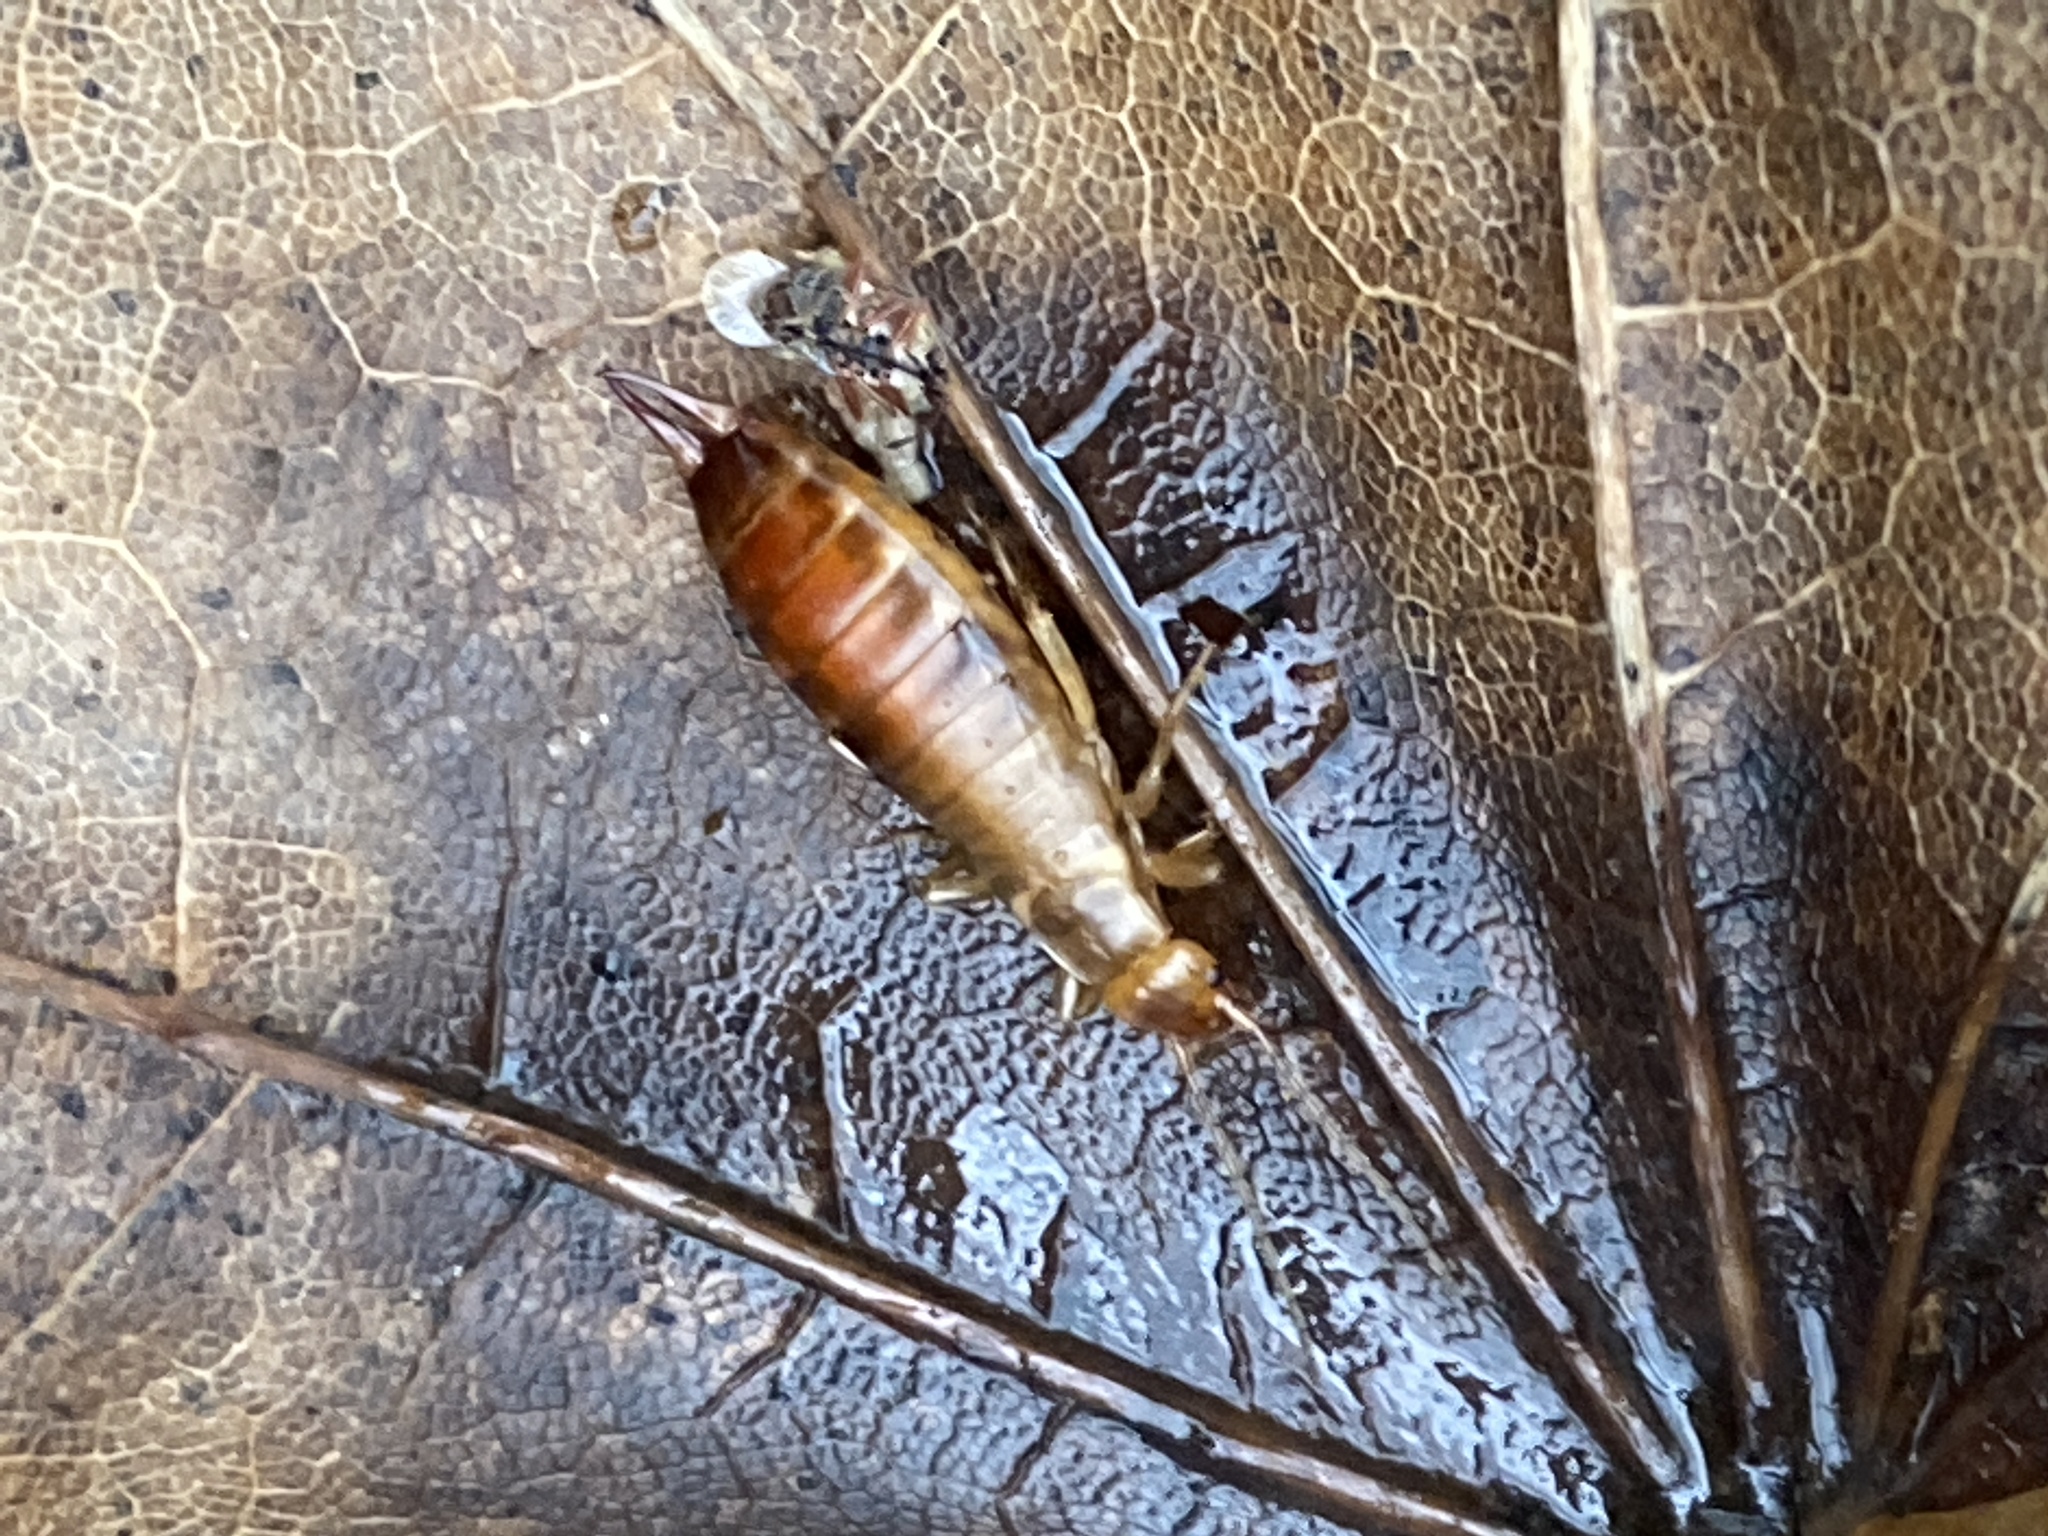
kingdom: Animalia
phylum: Arthropoda
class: Insecta
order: Dermaptera
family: Forficulidae
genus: Chelidurella
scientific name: Chelidurella acanthopygia
